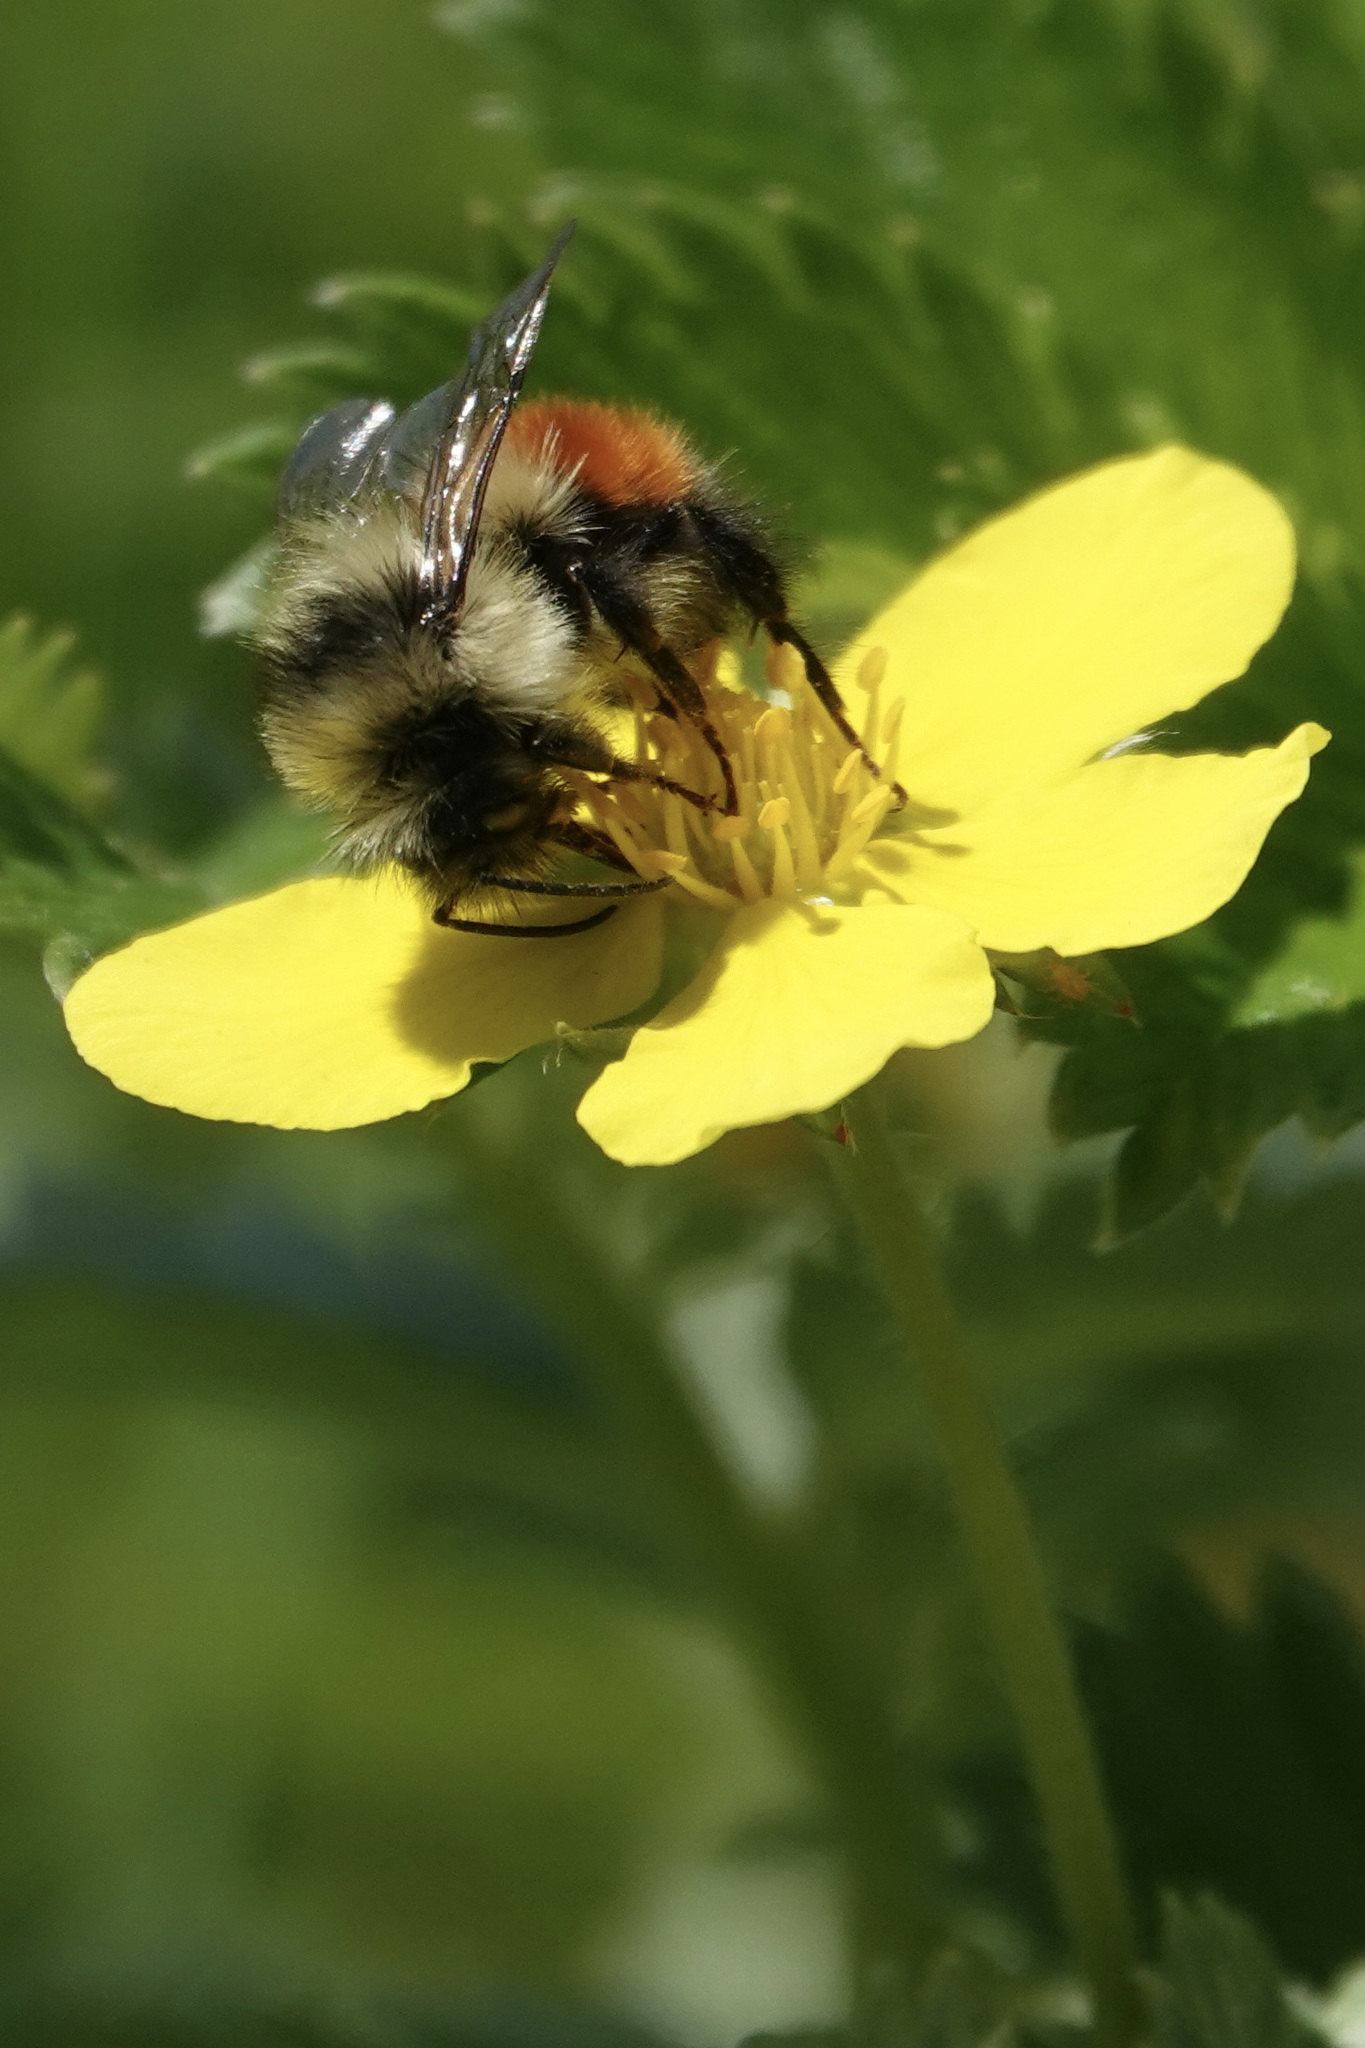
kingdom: Animalia
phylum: Arthropoda
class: Insecta
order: Hymenoptera
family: Apidae
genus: Bombus
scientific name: Bombus melanopygus
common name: Black tail bumble bee
